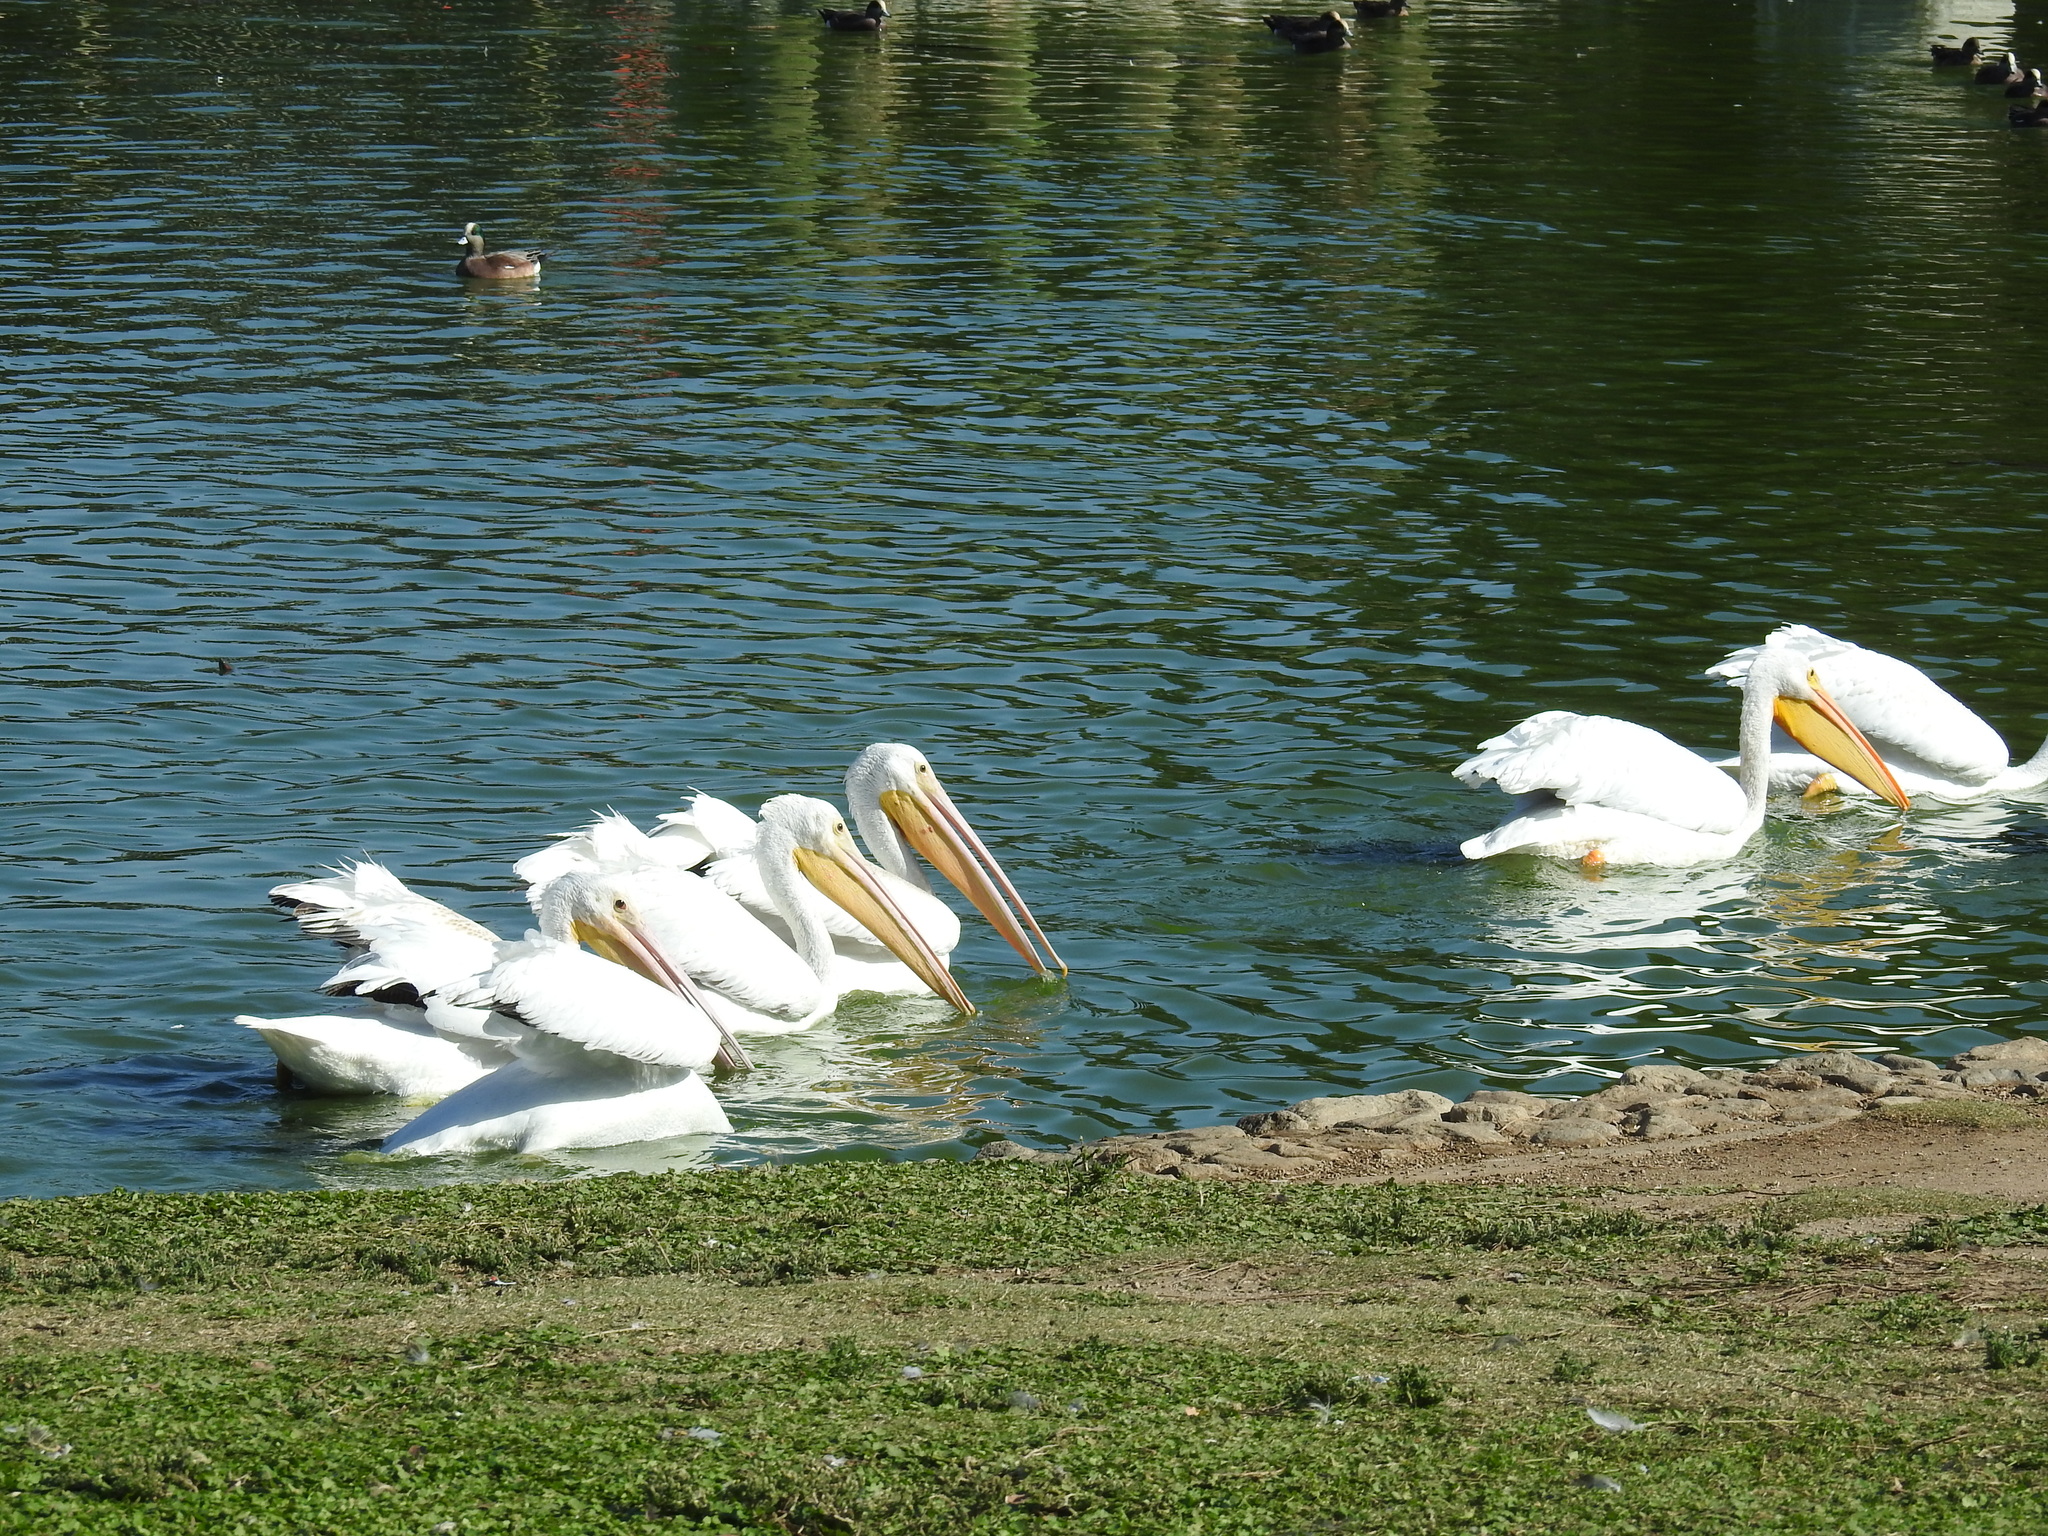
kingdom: Animalia
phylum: Chordata
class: Aves
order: Pelecaniformes
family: Pelecanidae
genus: Pelecanus
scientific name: Pelecanus erythrorhynchos
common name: American white pelican
